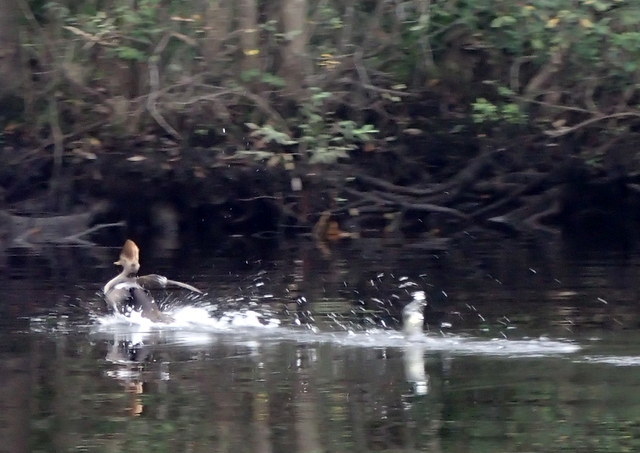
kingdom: Animalia
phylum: Chordata
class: Aves
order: Anseriformes
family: Anatidae
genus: Lophodytes
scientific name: Lophodytes cucullatus
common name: Hooded merganser
